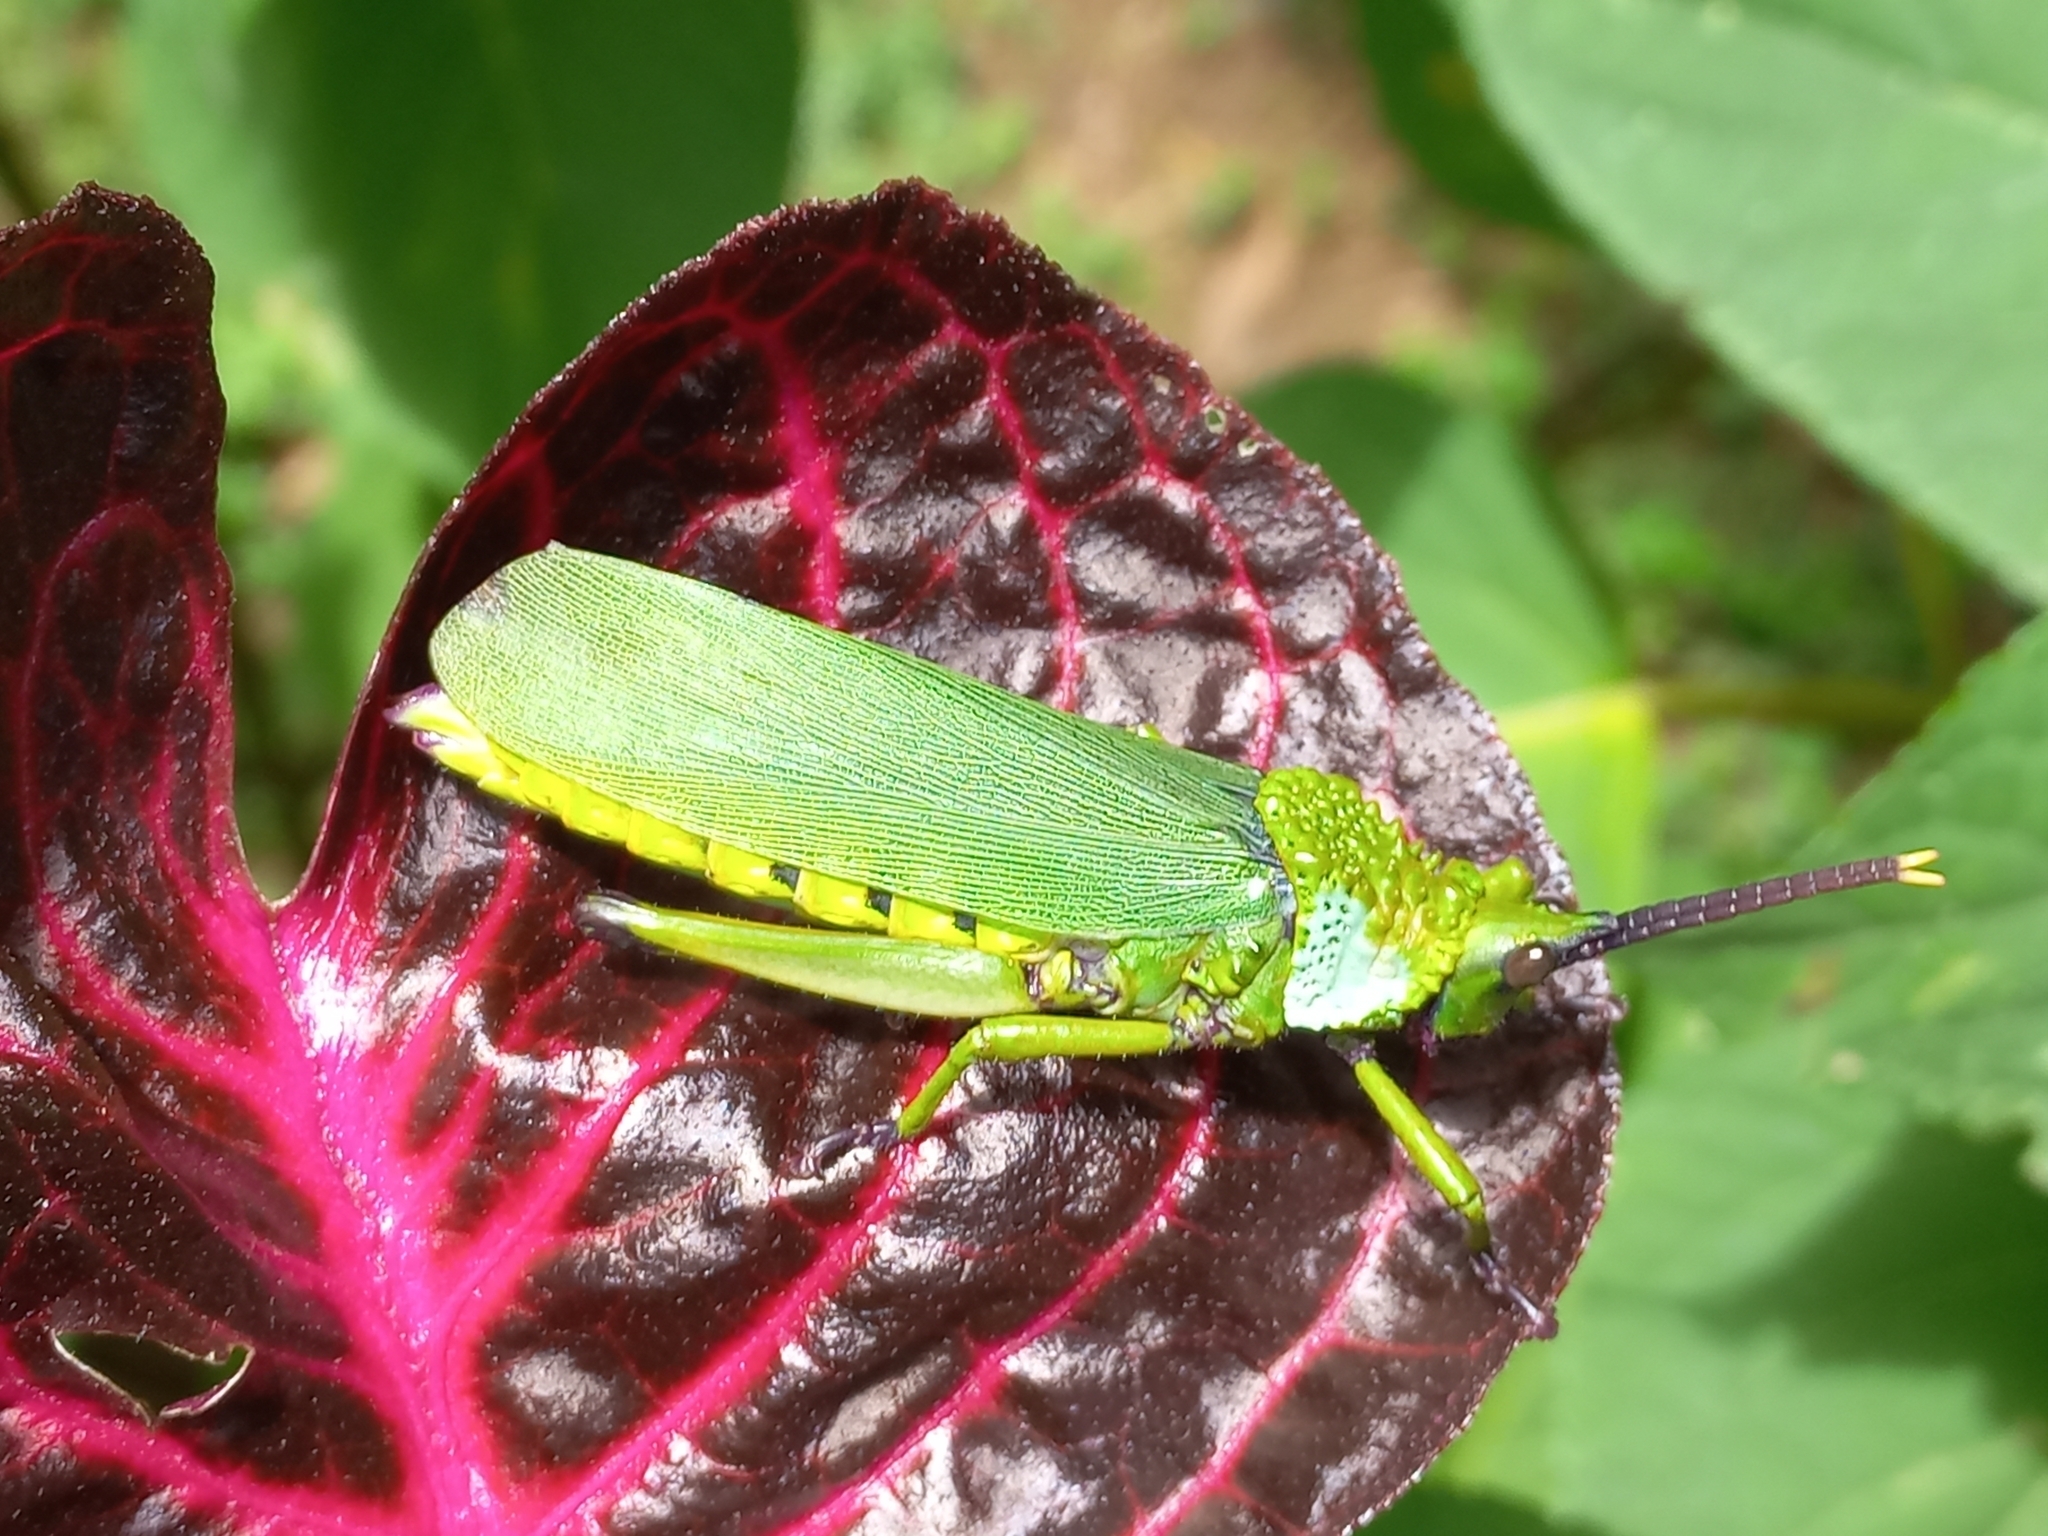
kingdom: Animalia
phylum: Arthropoda
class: Insecta
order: Orthoptera
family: Pyrgomorphidae
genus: Taphronota
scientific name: Taphronota calliparea
